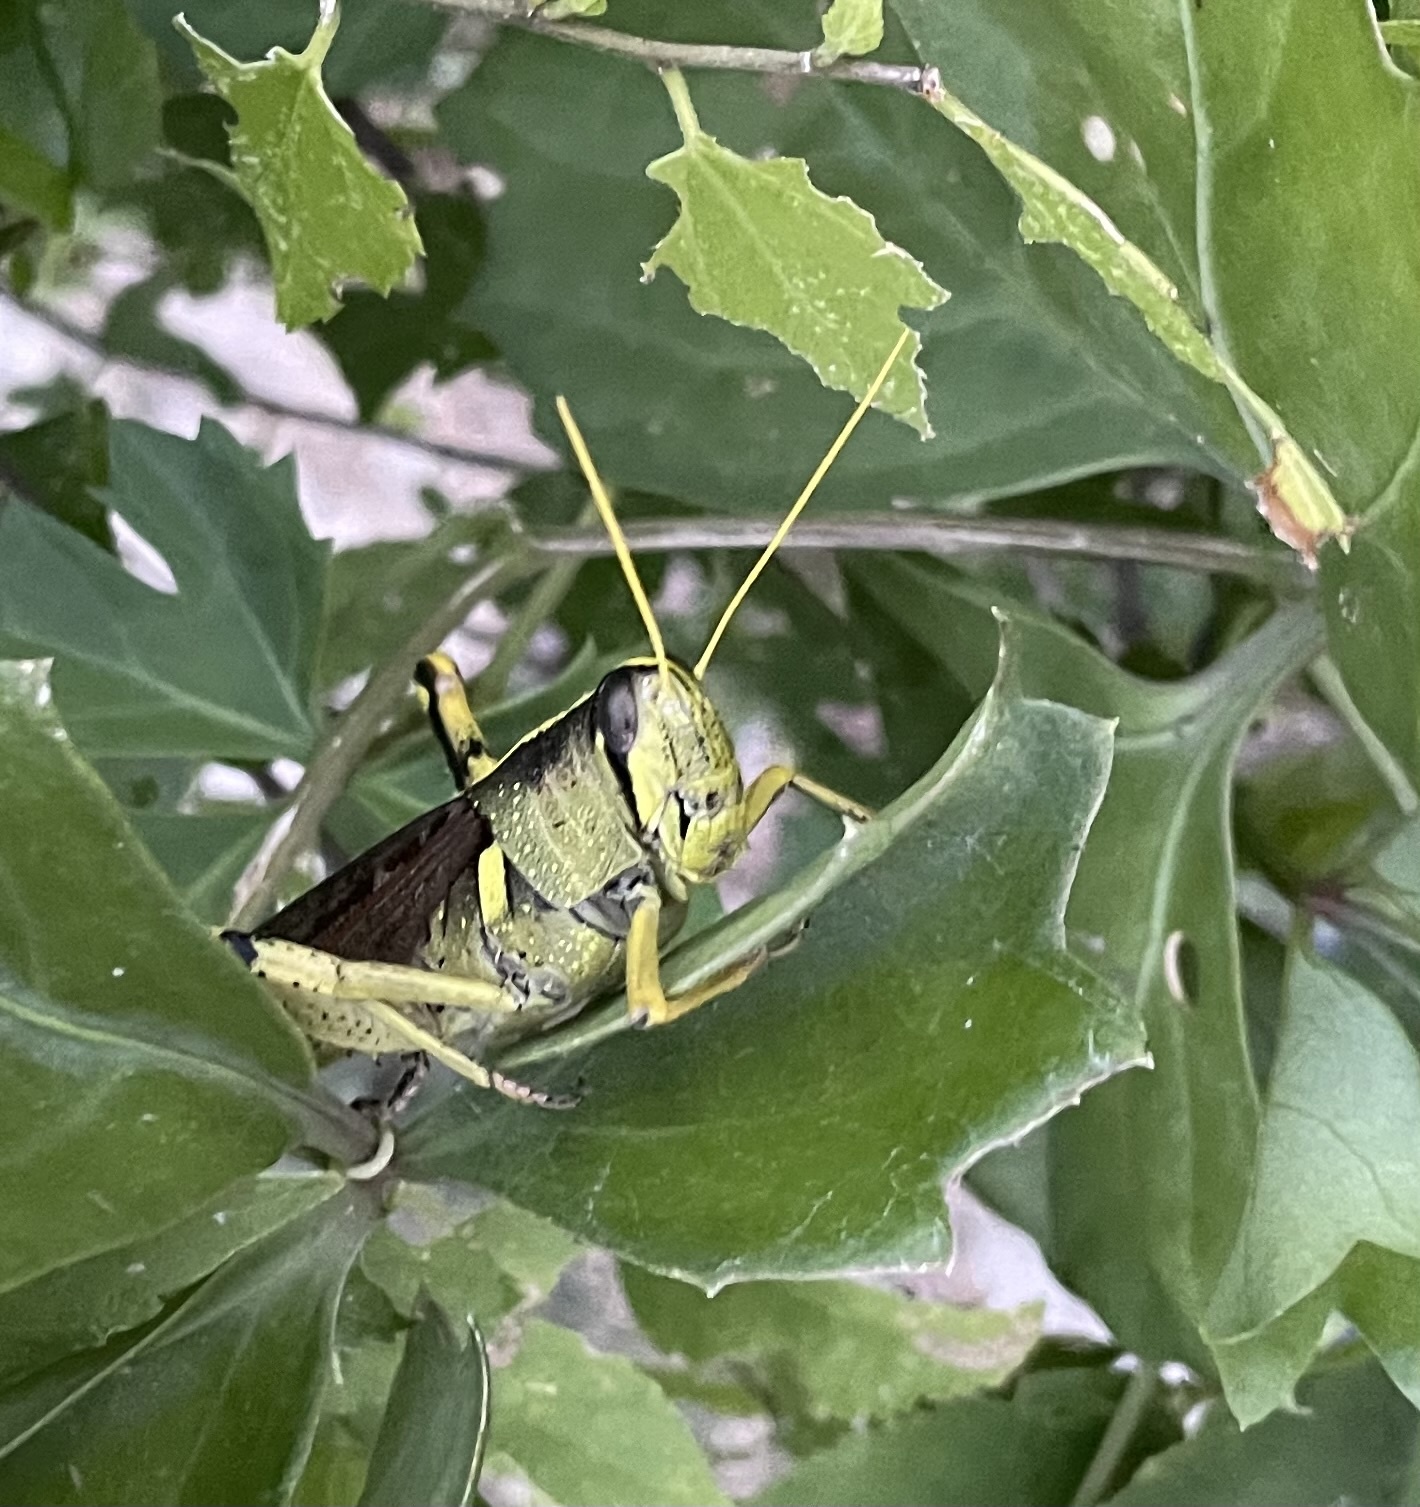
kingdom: Animalia
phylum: Arthropoda
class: Insecta
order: Orthoptera
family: Acrididae
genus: Schistocerca
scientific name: Schistocerca obscura
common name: Obscure bird grasshopper
